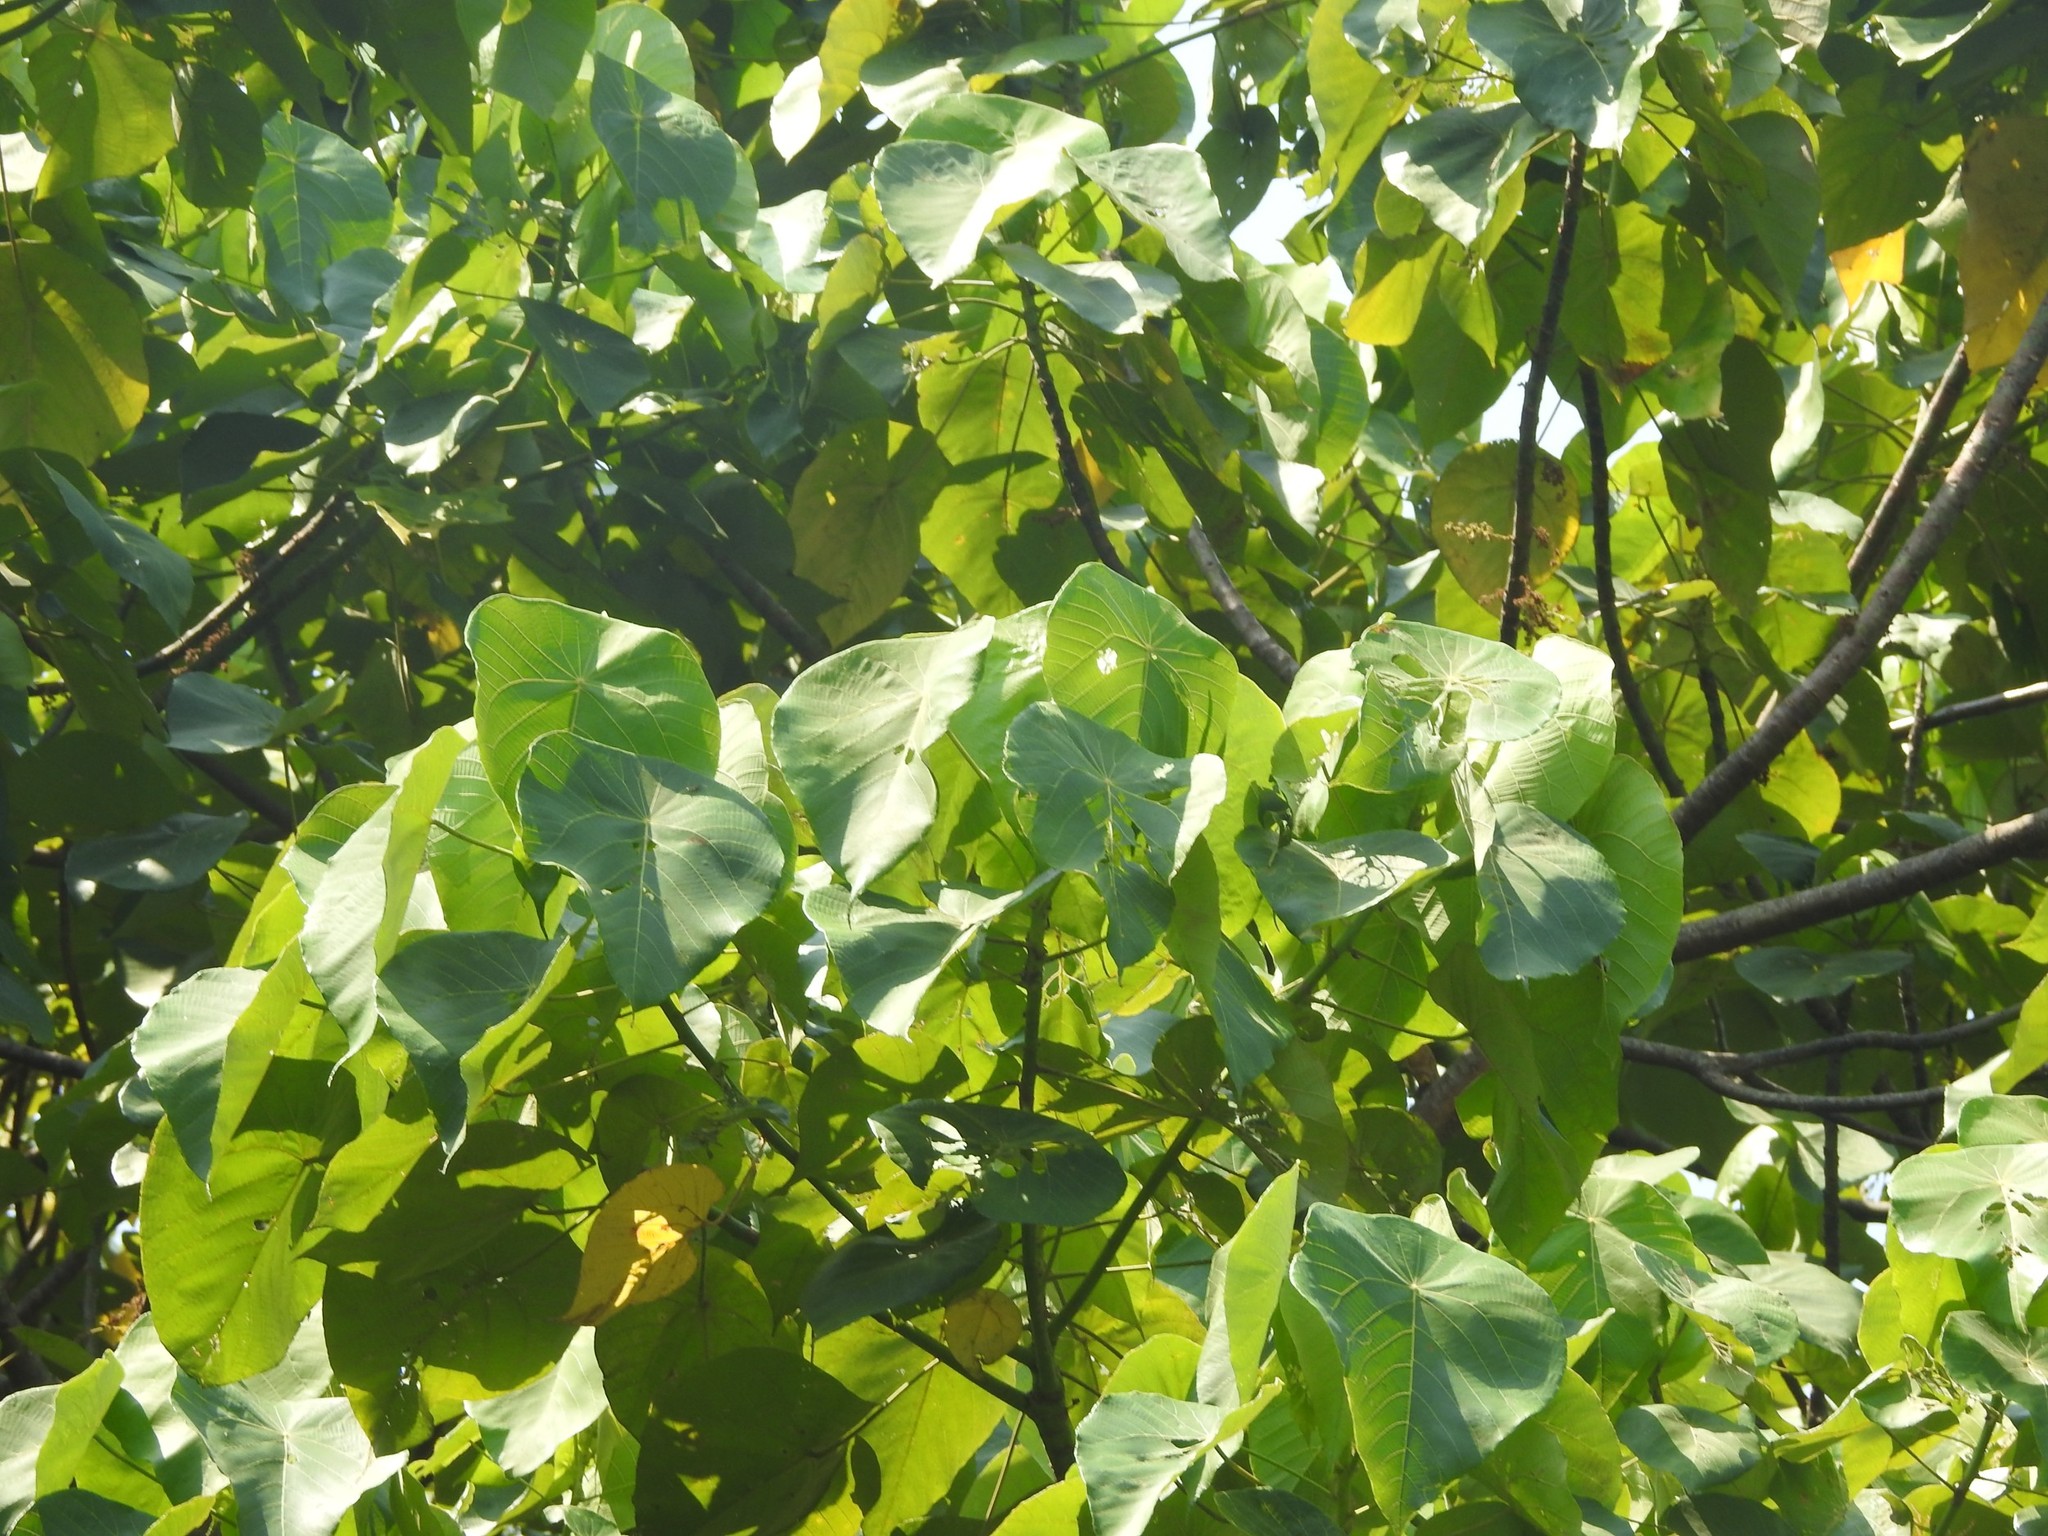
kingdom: Plantae
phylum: Tracheophyta
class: Magnoliopsida
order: Malpighiales
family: Euphorbiaceae
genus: Macaranga
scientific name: Macaranga peltata
